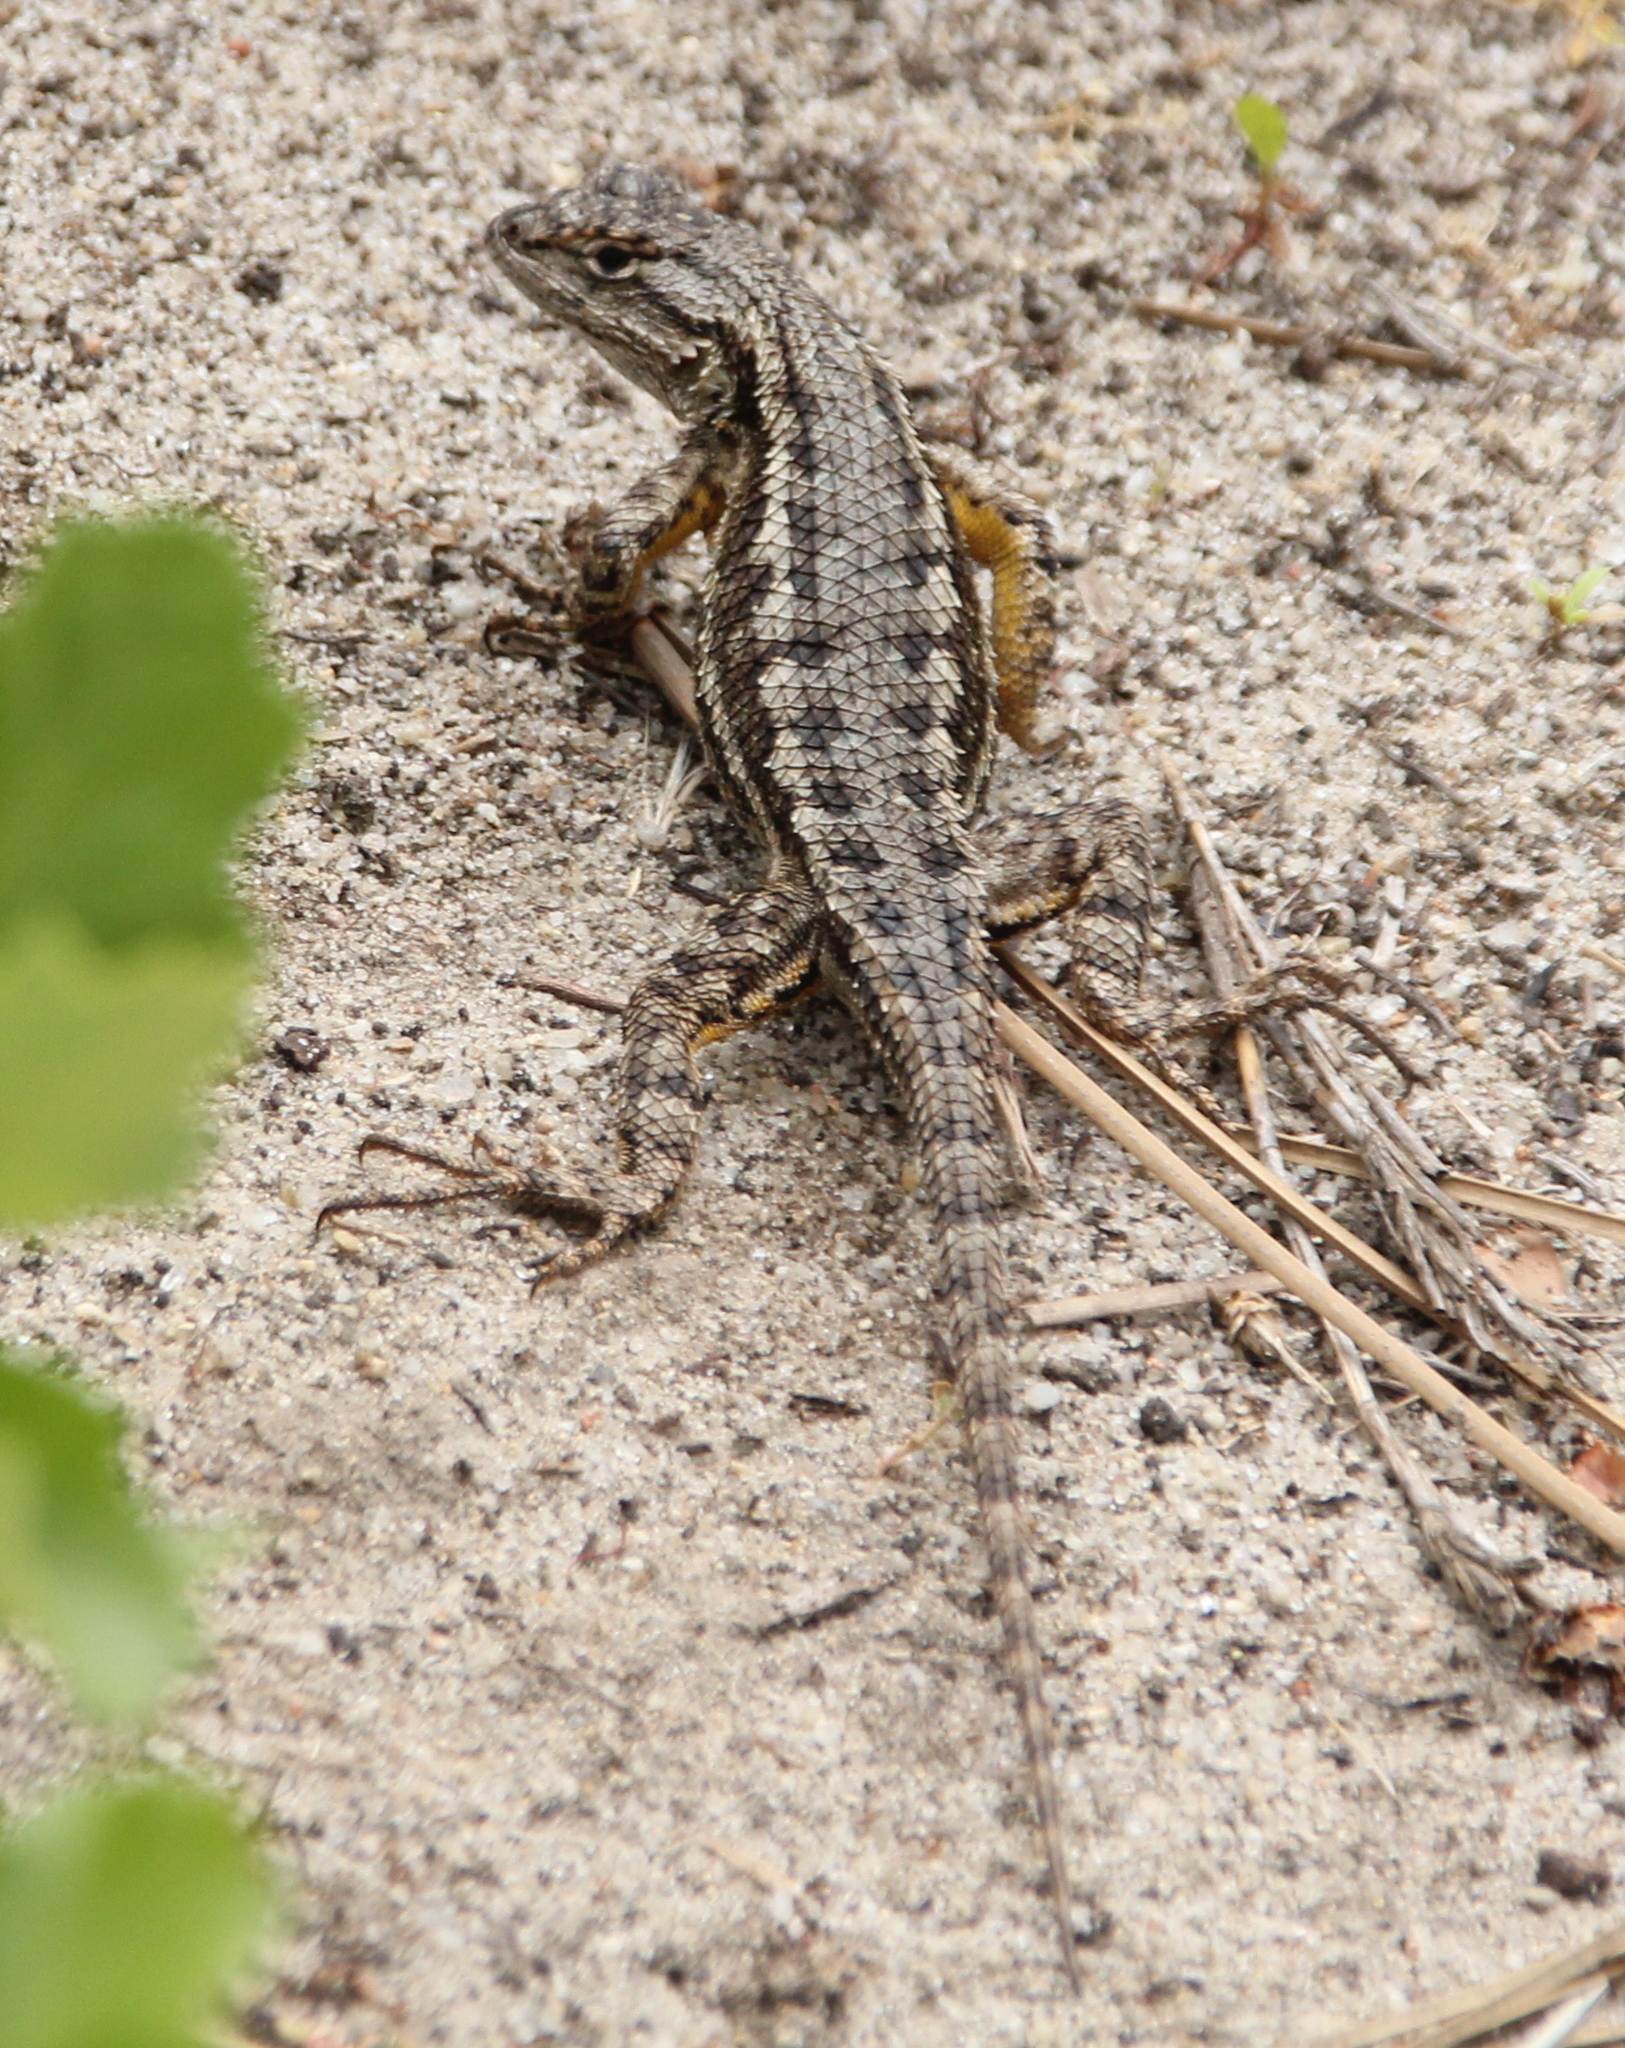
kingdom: Animalia
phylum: Chordata
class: Squamata
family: Phrynosomatidae
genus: Sceloporus
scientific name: Sceloporus occidentalis
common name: Western fence lizard
